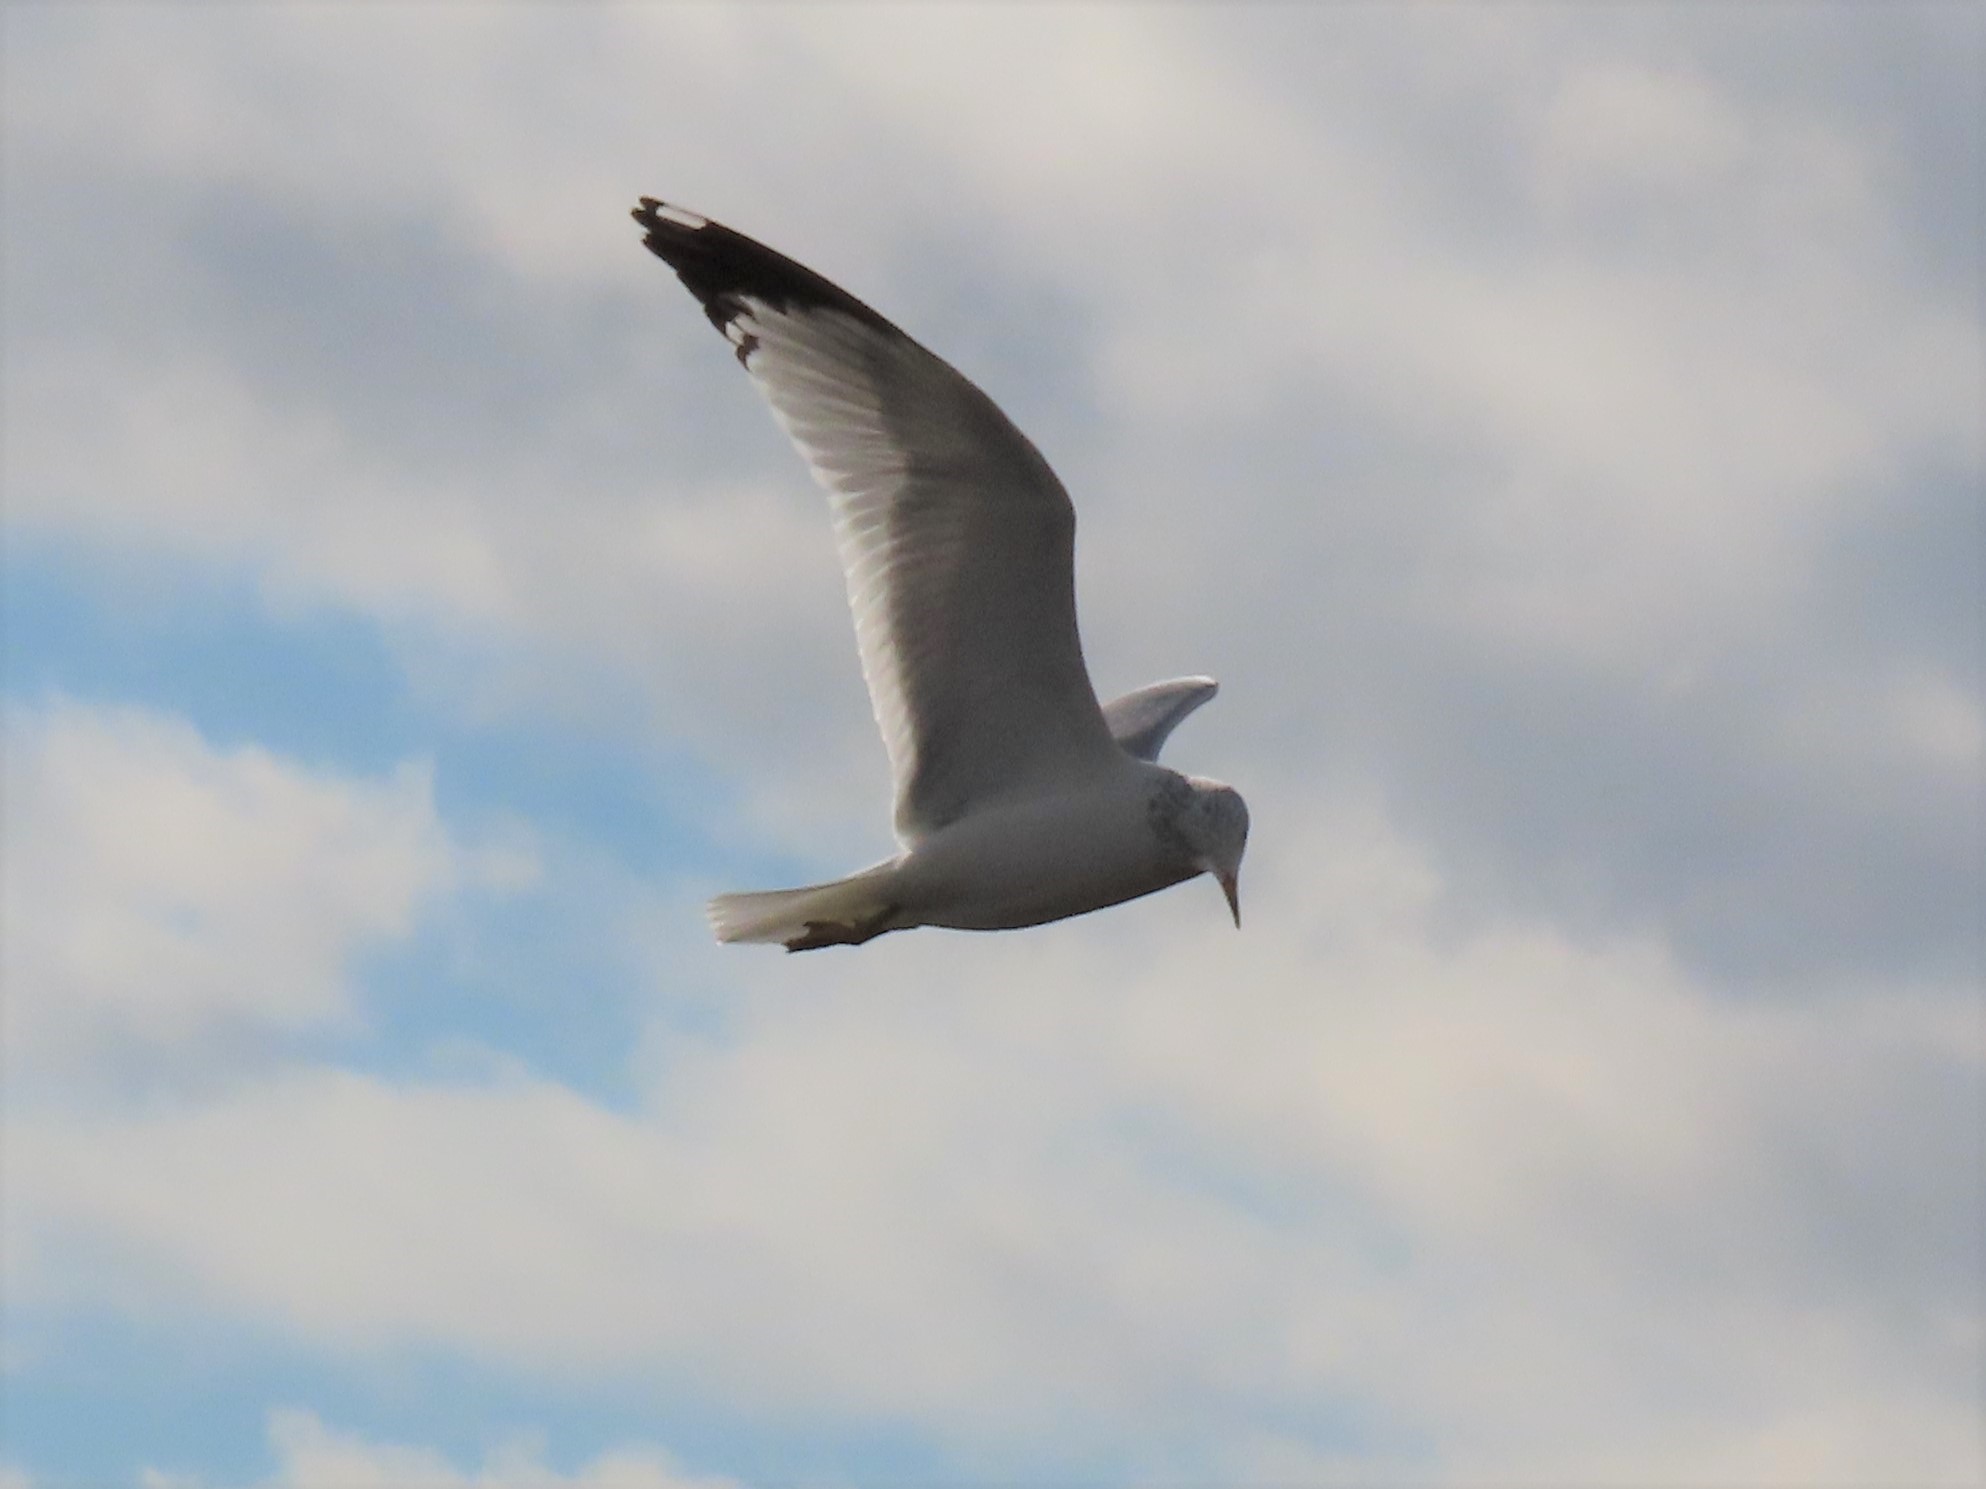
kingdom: Animalia
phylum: Chordata
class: Aves
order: Charadriiformes
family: Laridae
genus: Larus
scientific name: Larus delawarensis
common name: Ring-billed gull
